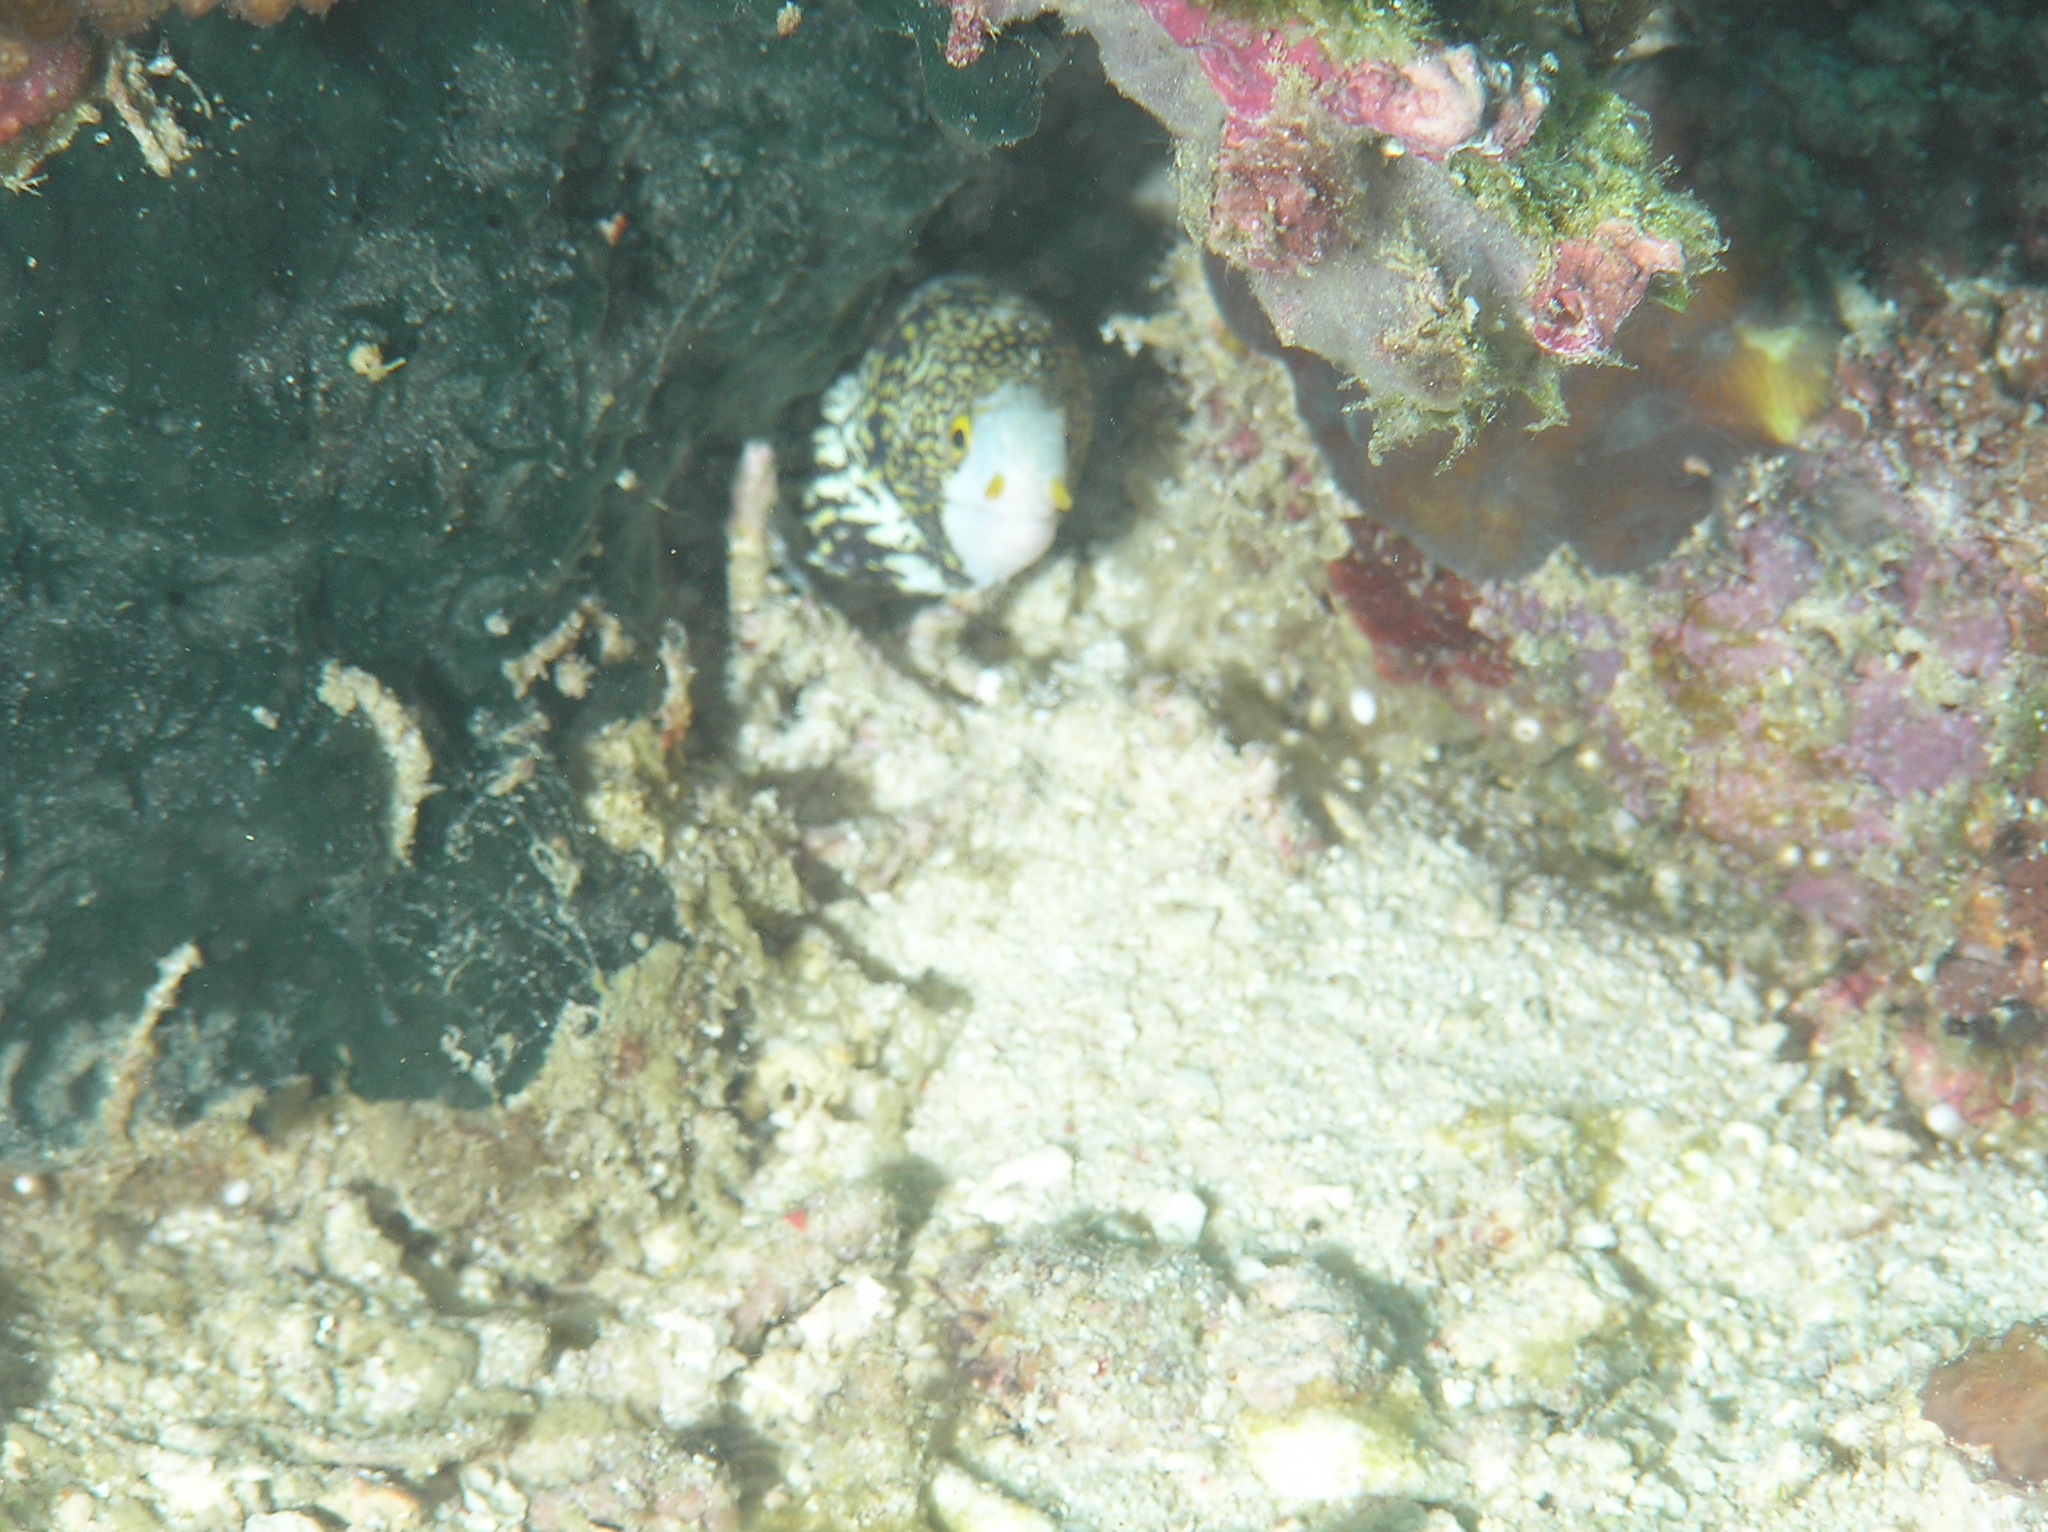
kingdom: Animalia
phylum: Chordata
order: Anguilliformes
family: Muraenidae
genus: Echidna
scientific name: Echidna nebulosa
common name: Snowflake moray
